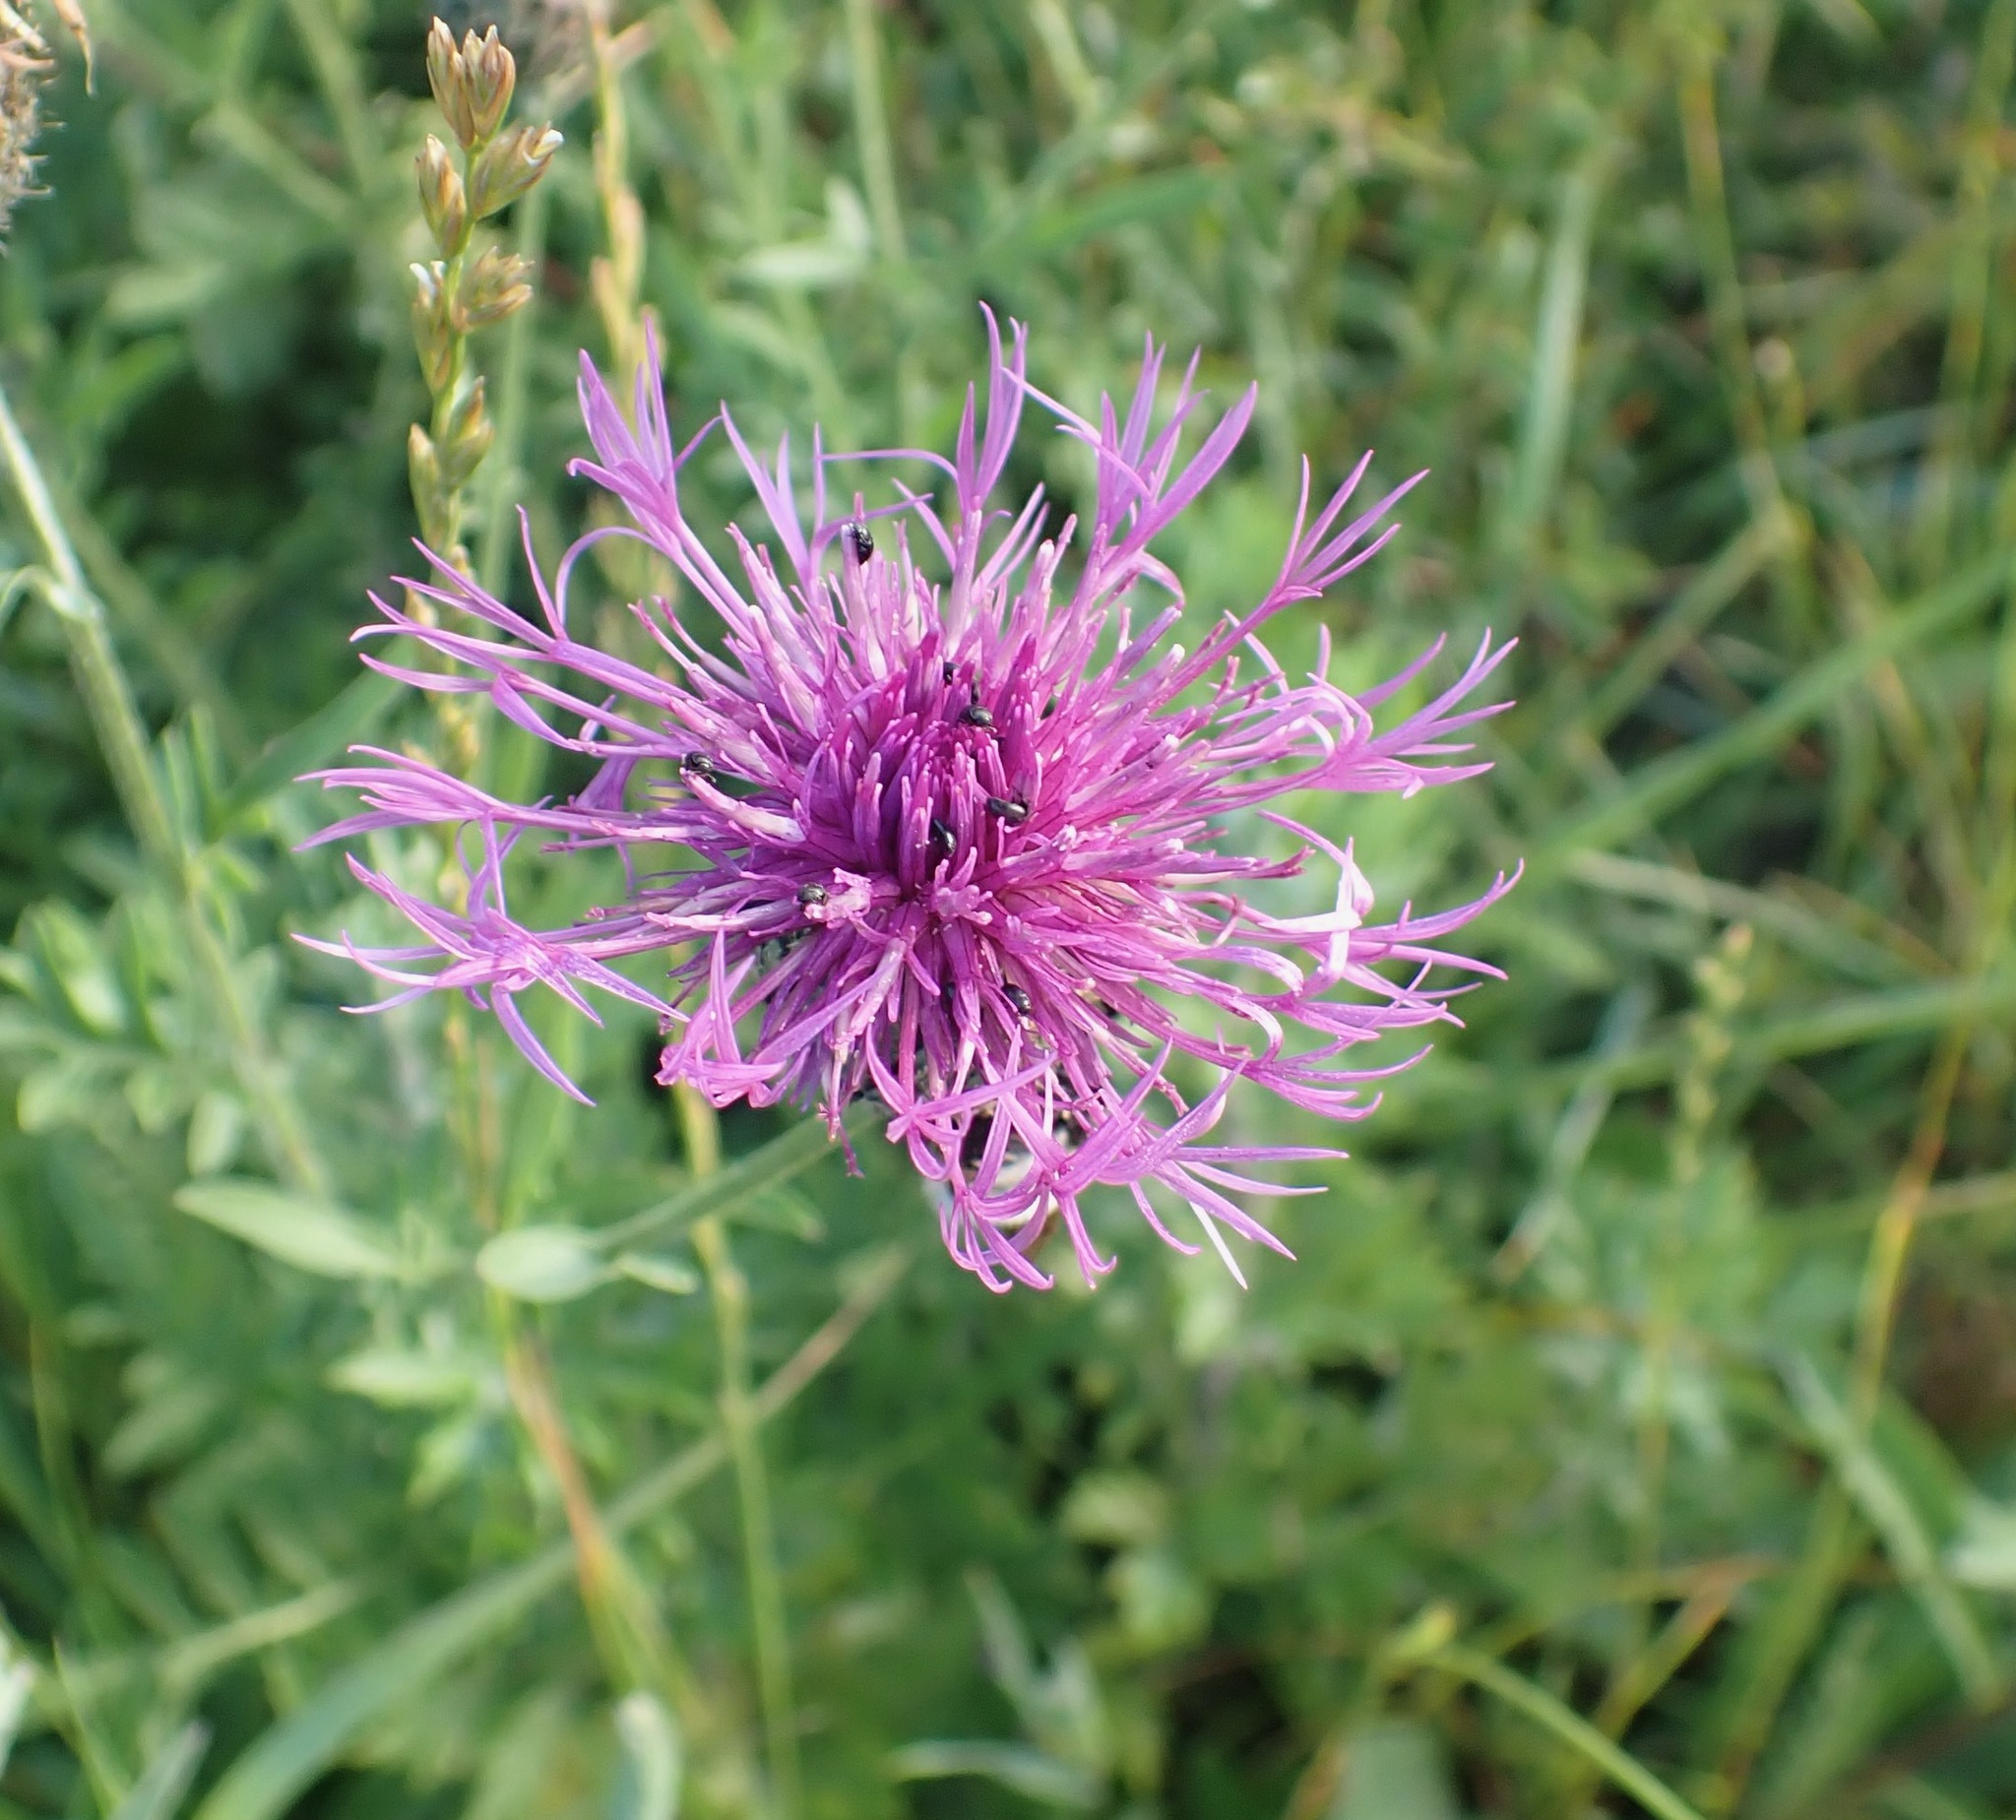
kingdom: Plantae
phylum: Tracheophyta
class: Magnoliopsida
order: Asterales
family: Asteraceae
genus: Centaurea
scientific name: Centaurea scabiosa
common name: Greater knapweed
